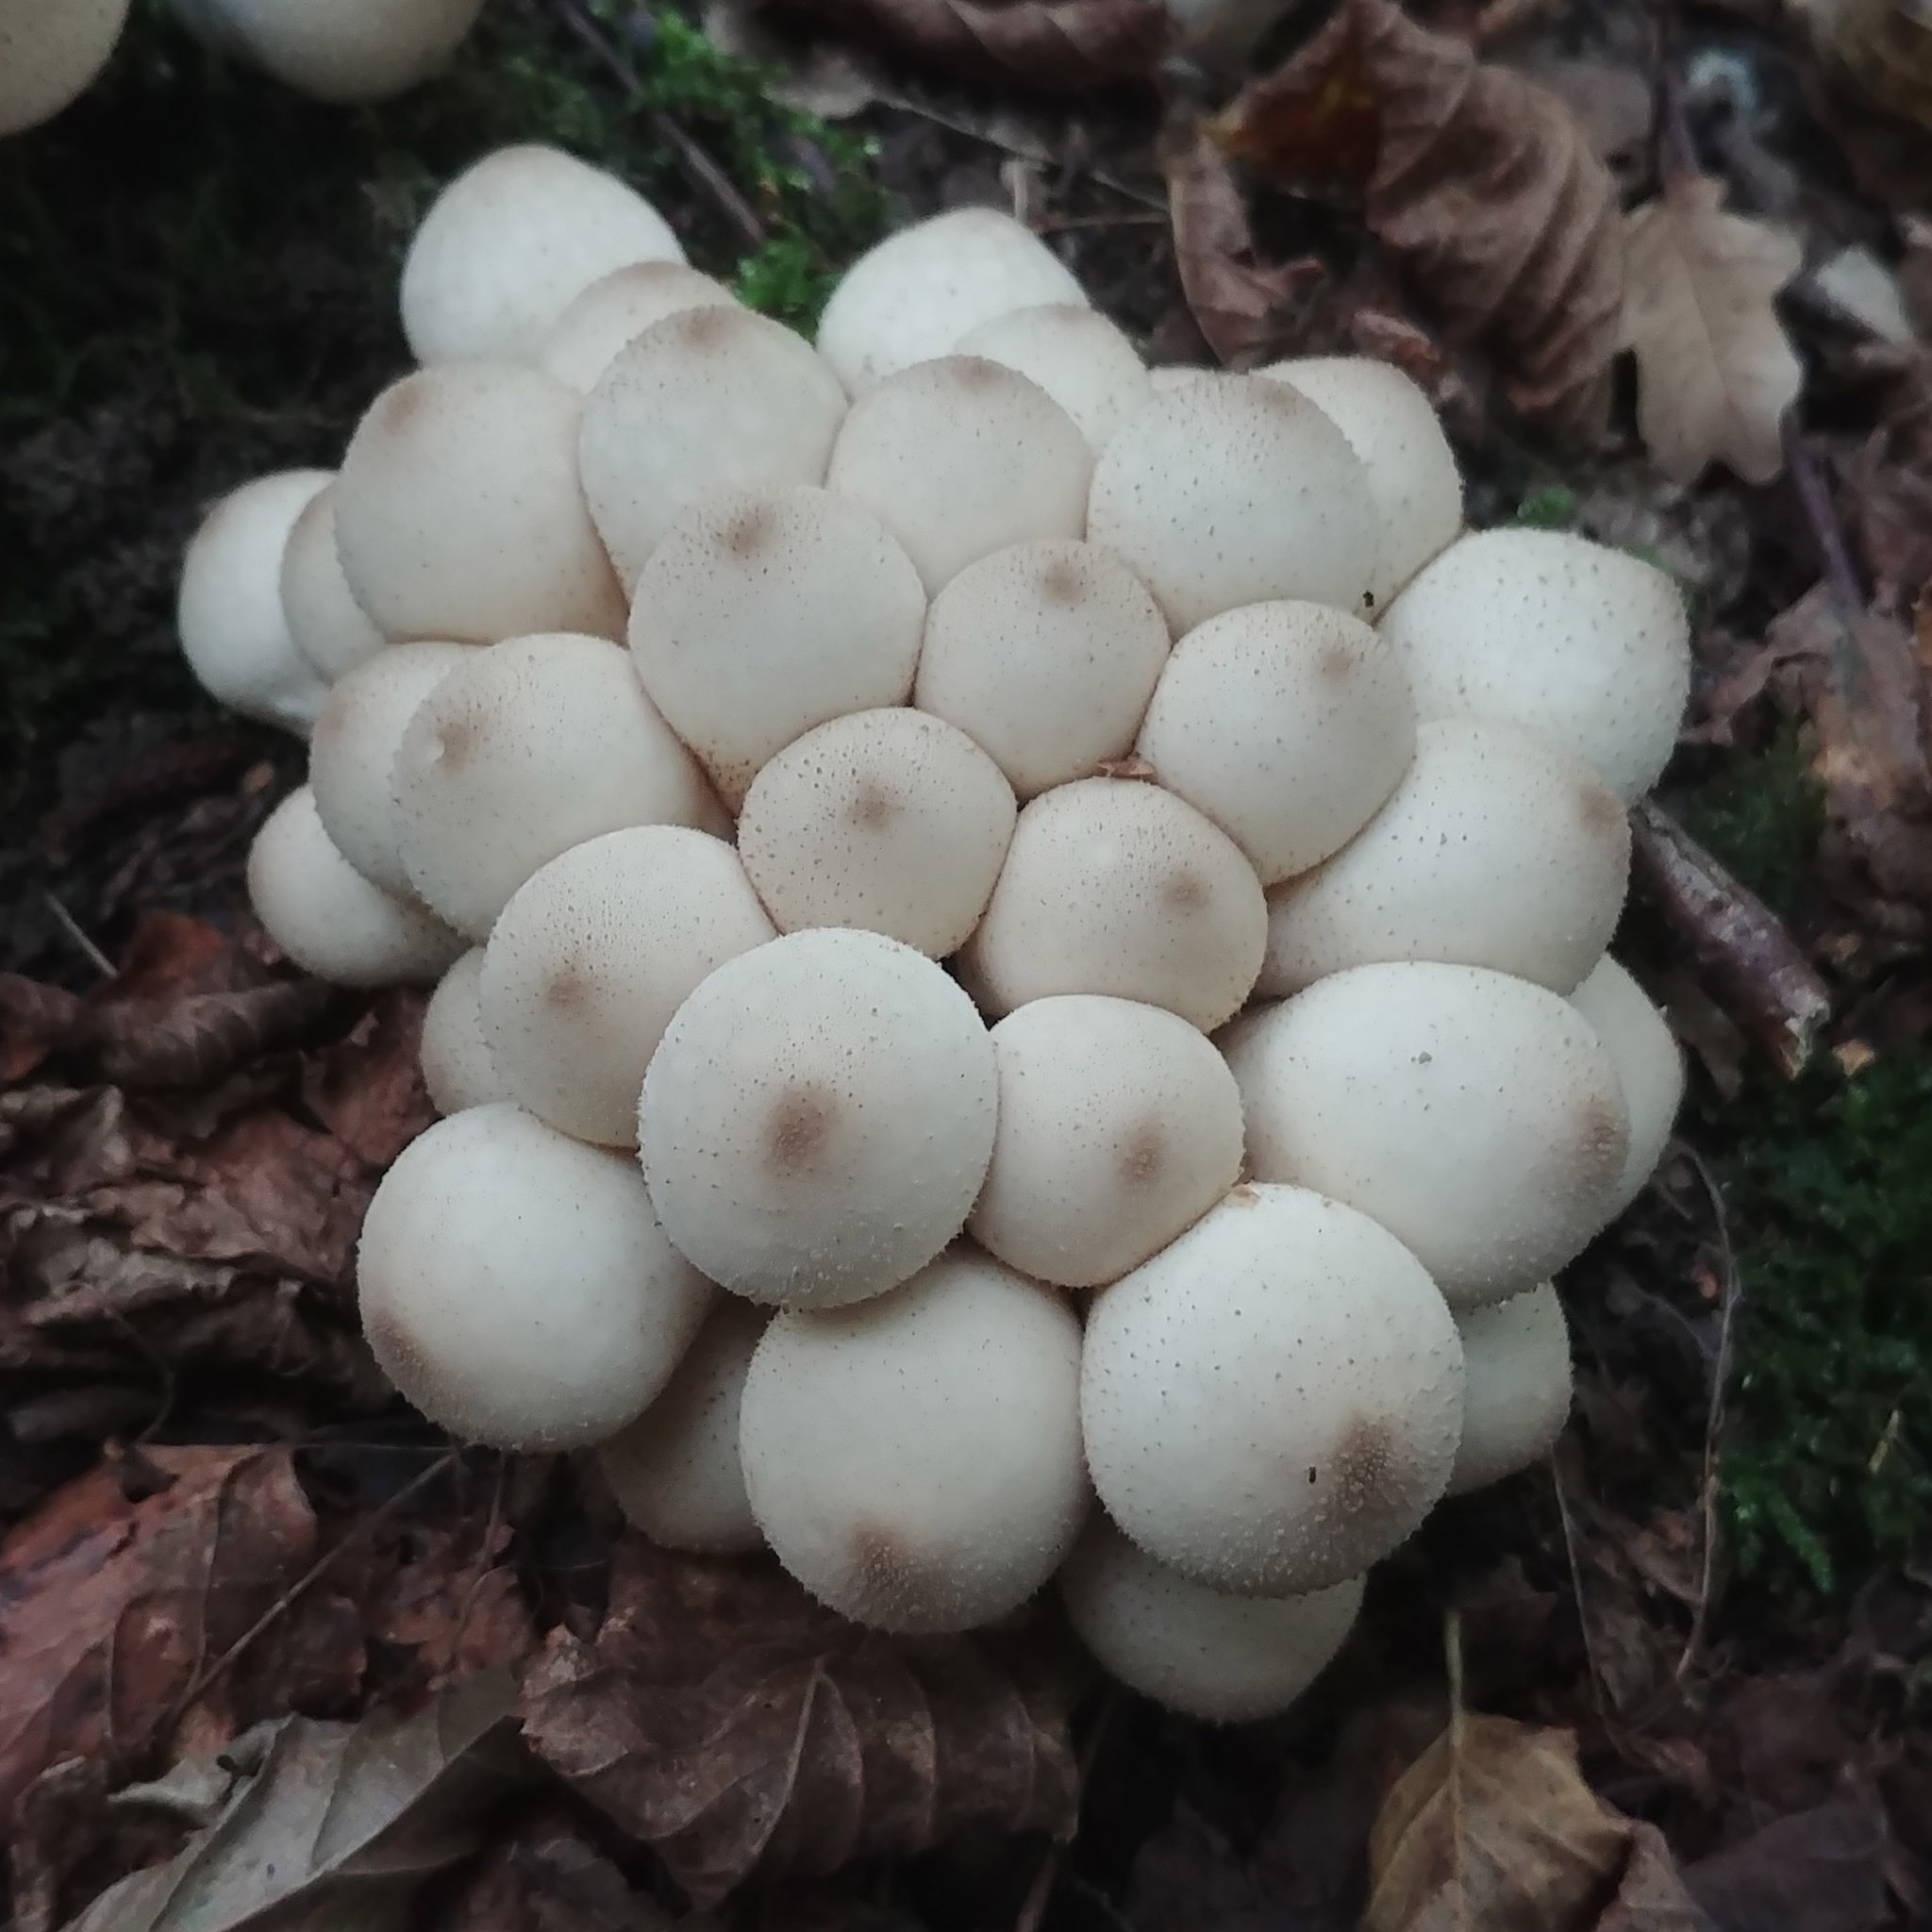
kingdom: Fungi
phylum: Basidiomycota
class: Agaricomycetes
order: Agaricales
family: Lycoperdaceae
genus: Apioperdon
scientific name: Apioperdon pyriforme
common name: Pear-shaped puffball
